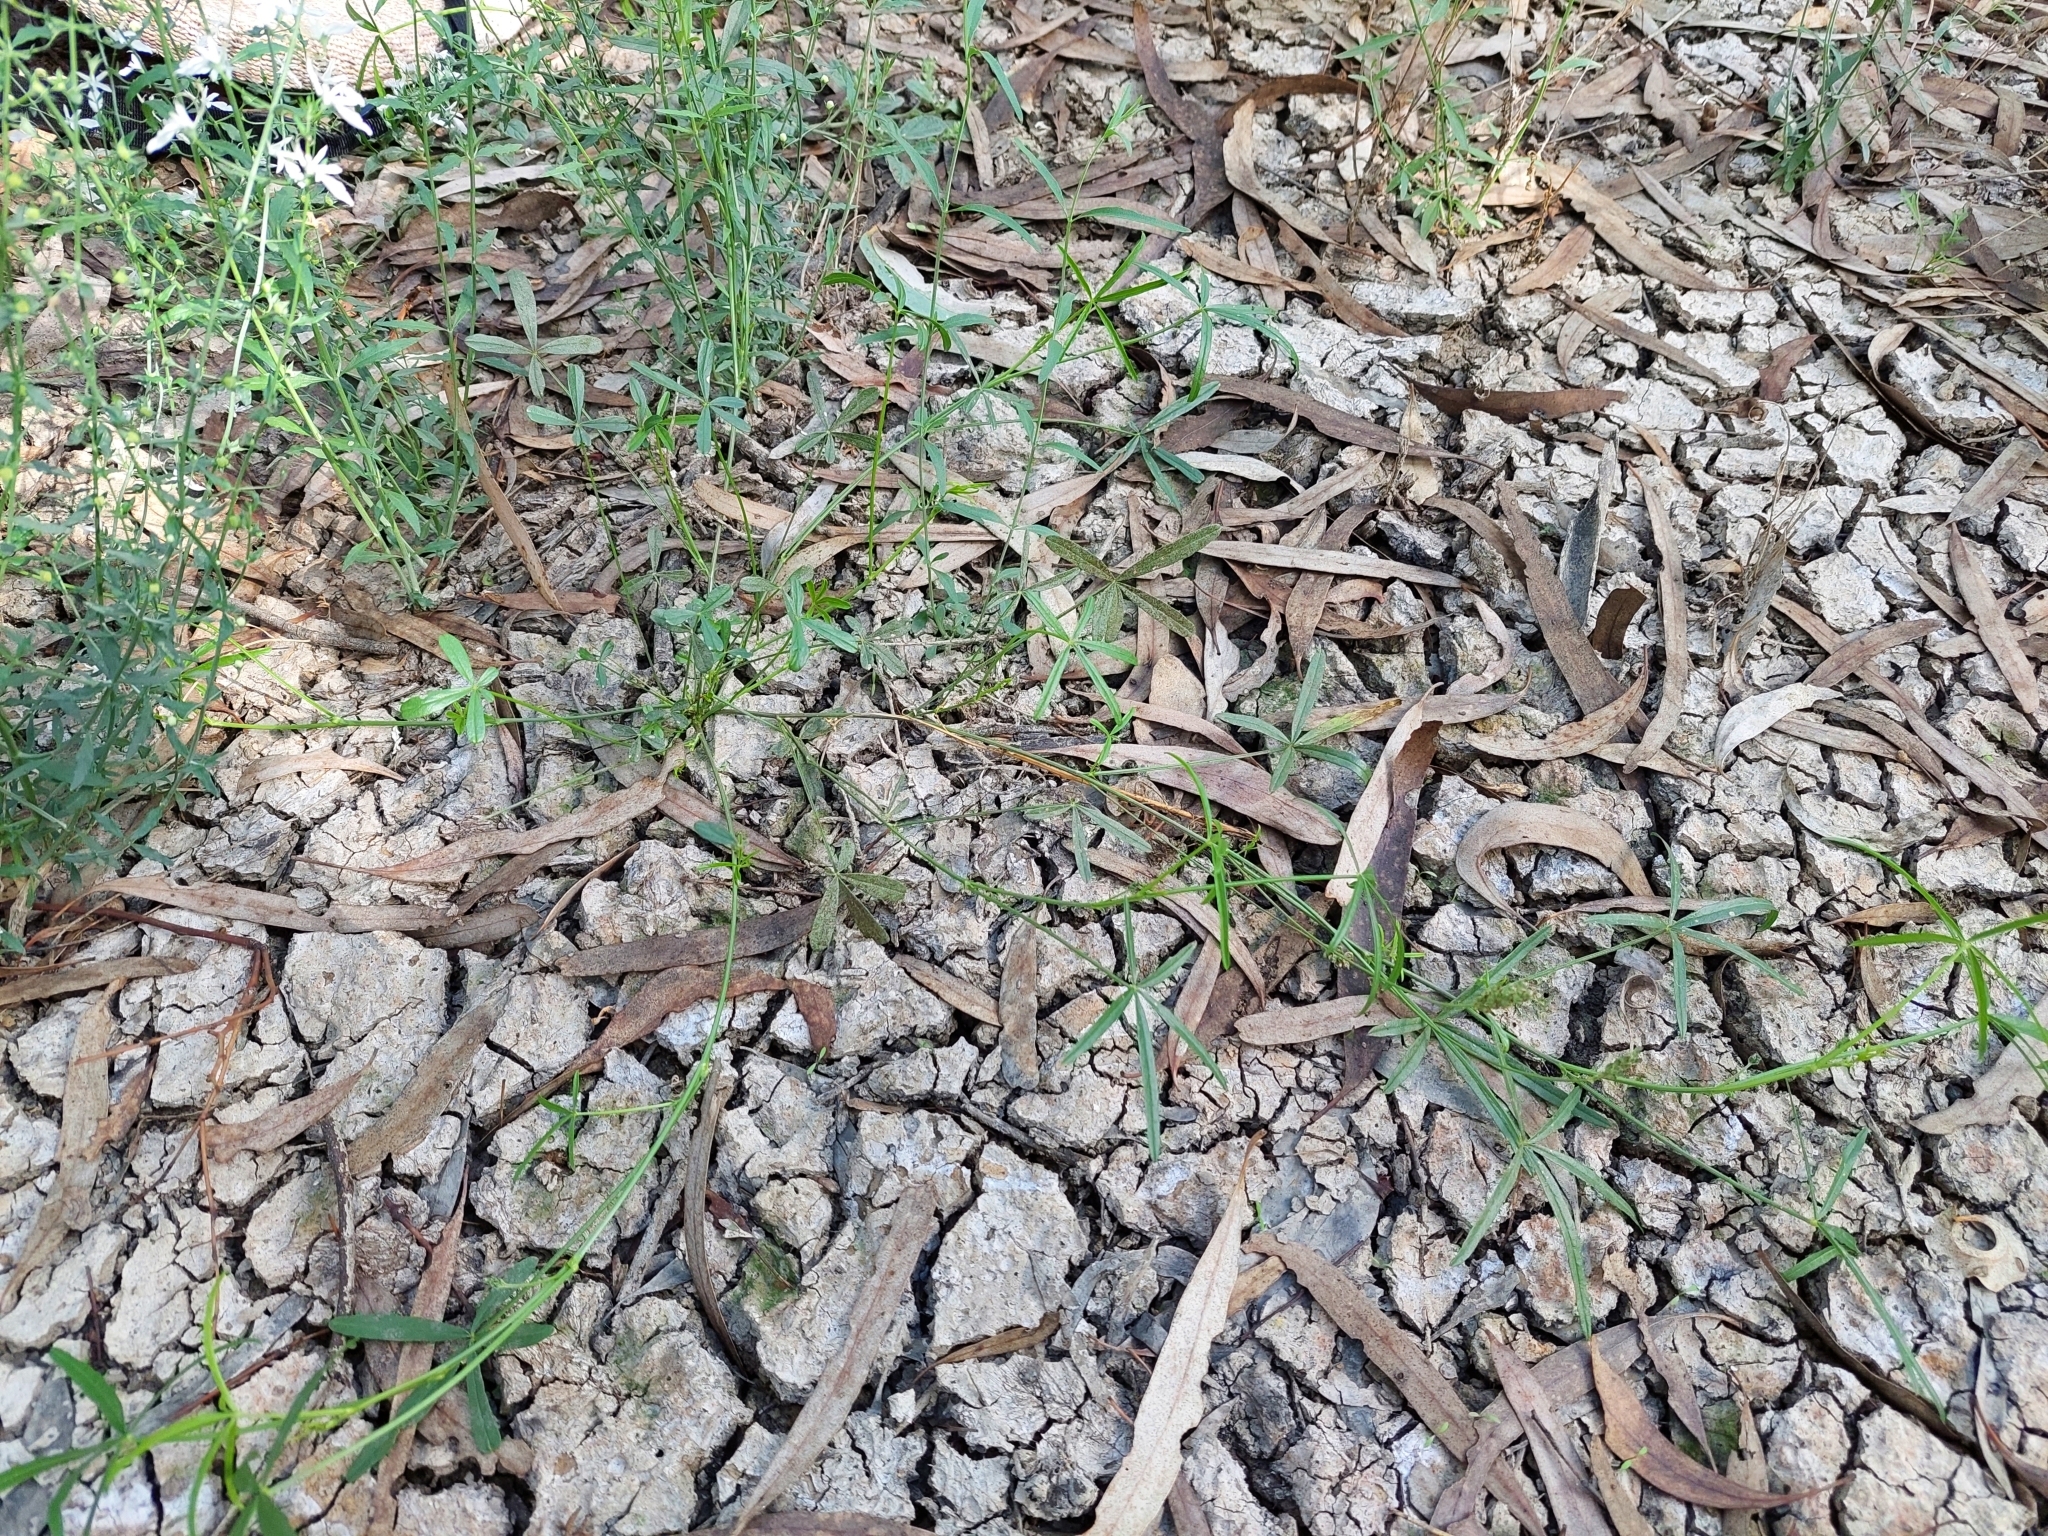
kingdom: Plantae
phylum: Tracheophyta
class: Magnoliopsida
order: Fabales
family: Fabaceae
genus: Cullen
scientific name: Cullen tenax
